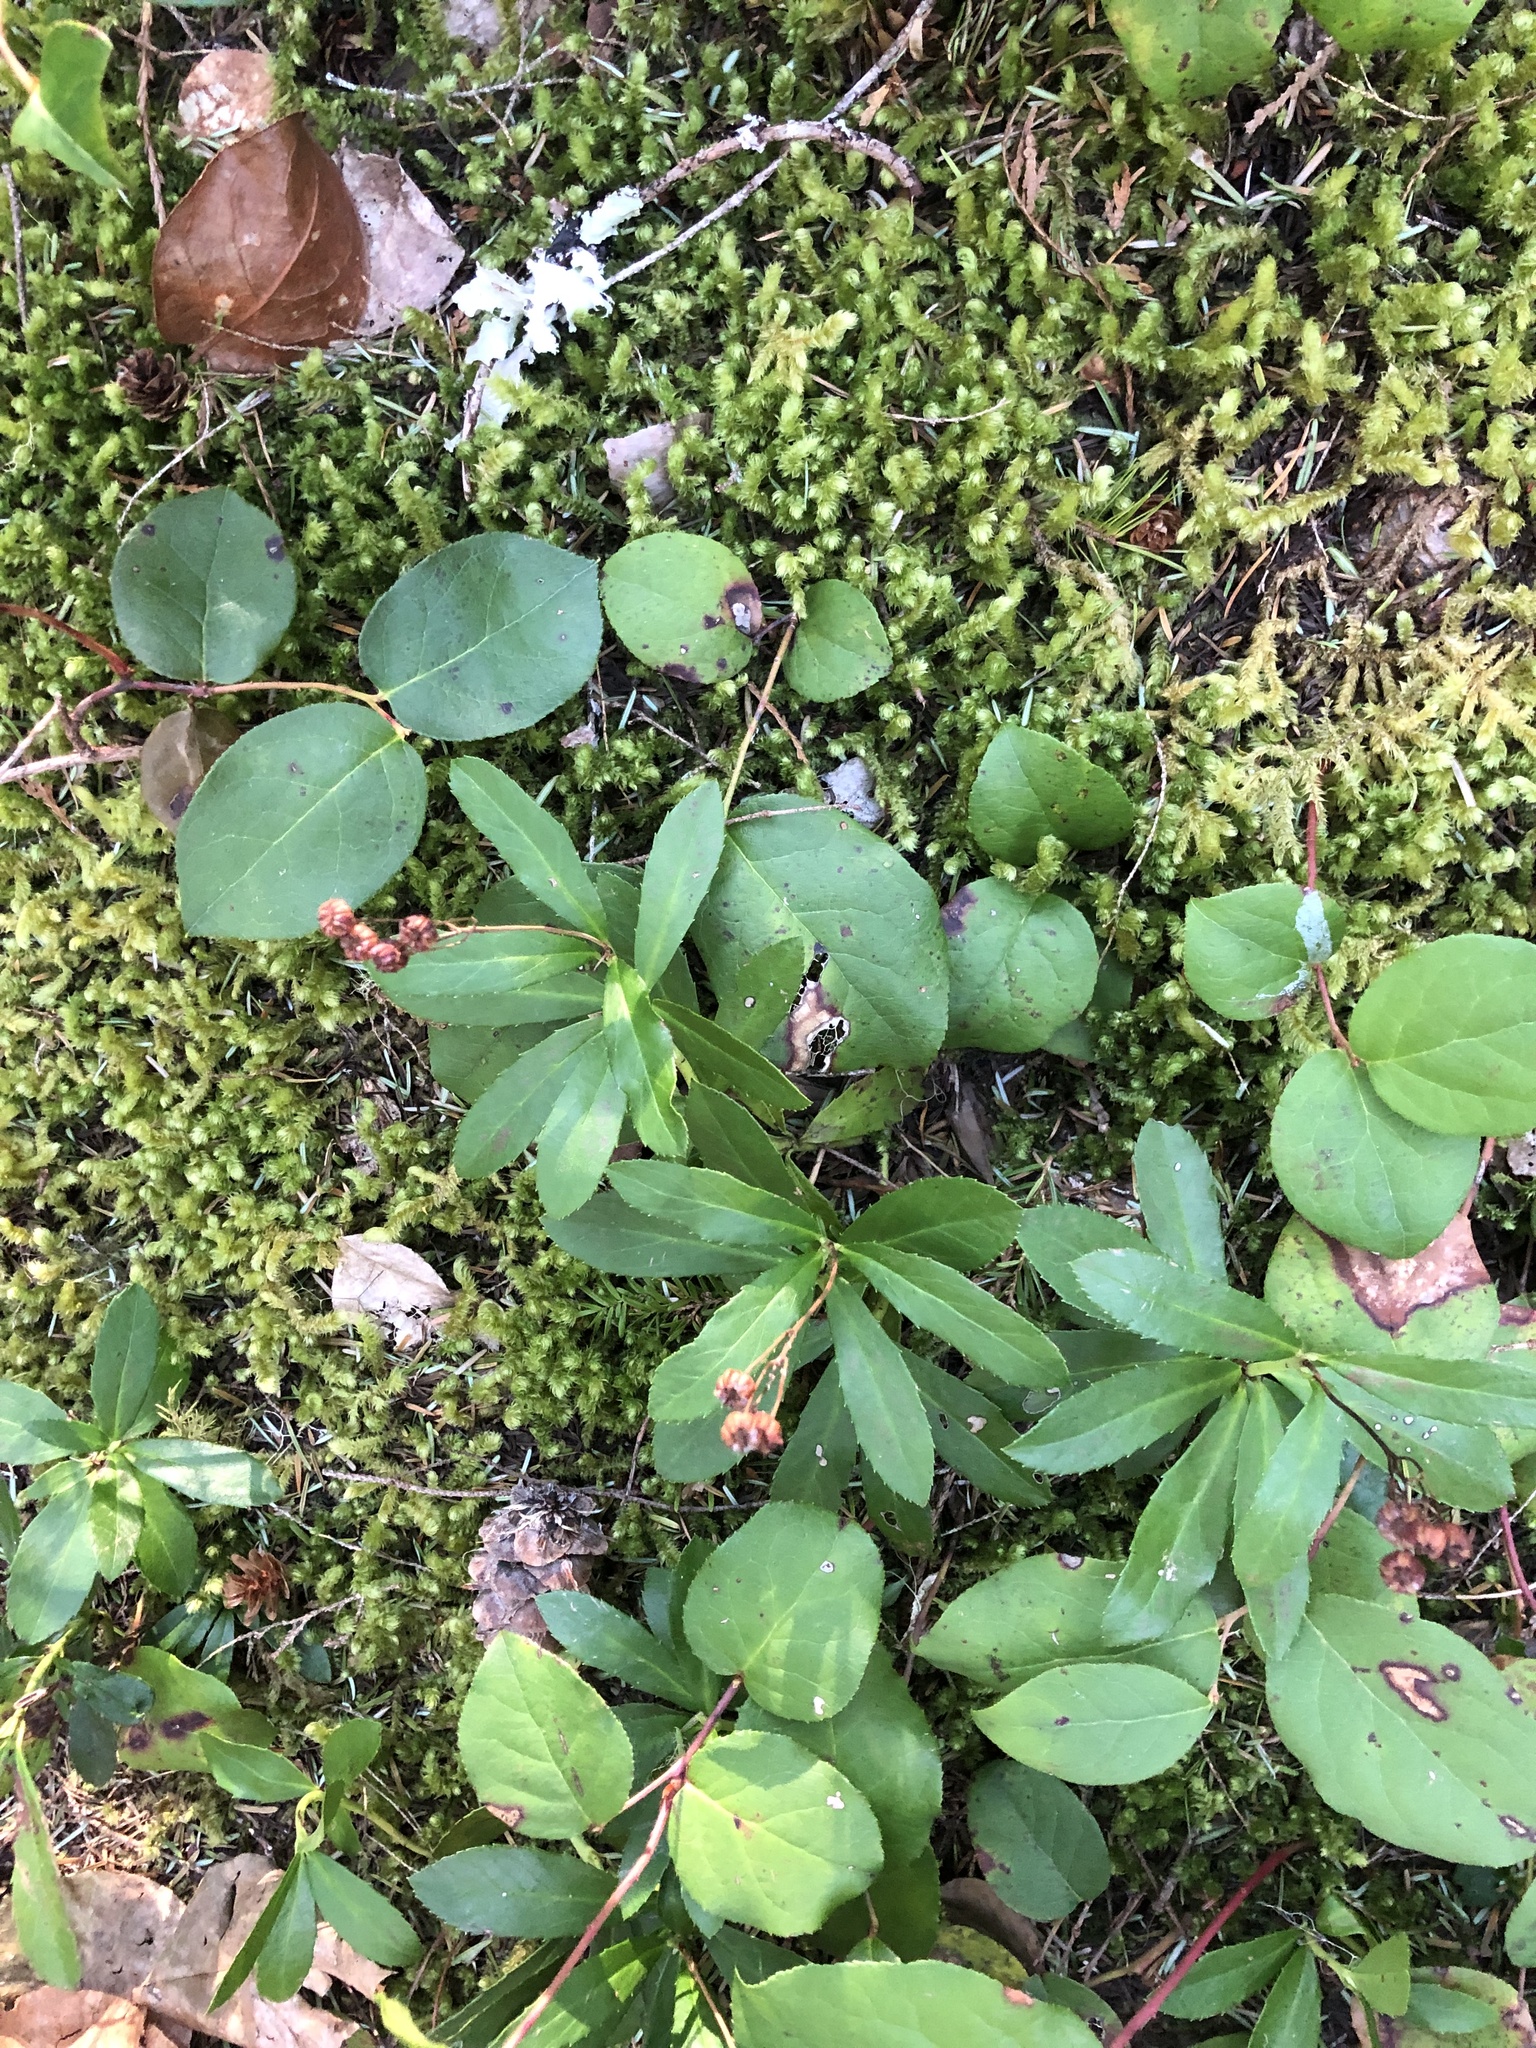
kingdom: Plantae
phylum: Tracheophyta
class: Magnoliopsida
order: Ericales
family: Ericaceae
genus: Chimaphila
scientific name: Chimaphila umbellata
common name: Pipsissewa
